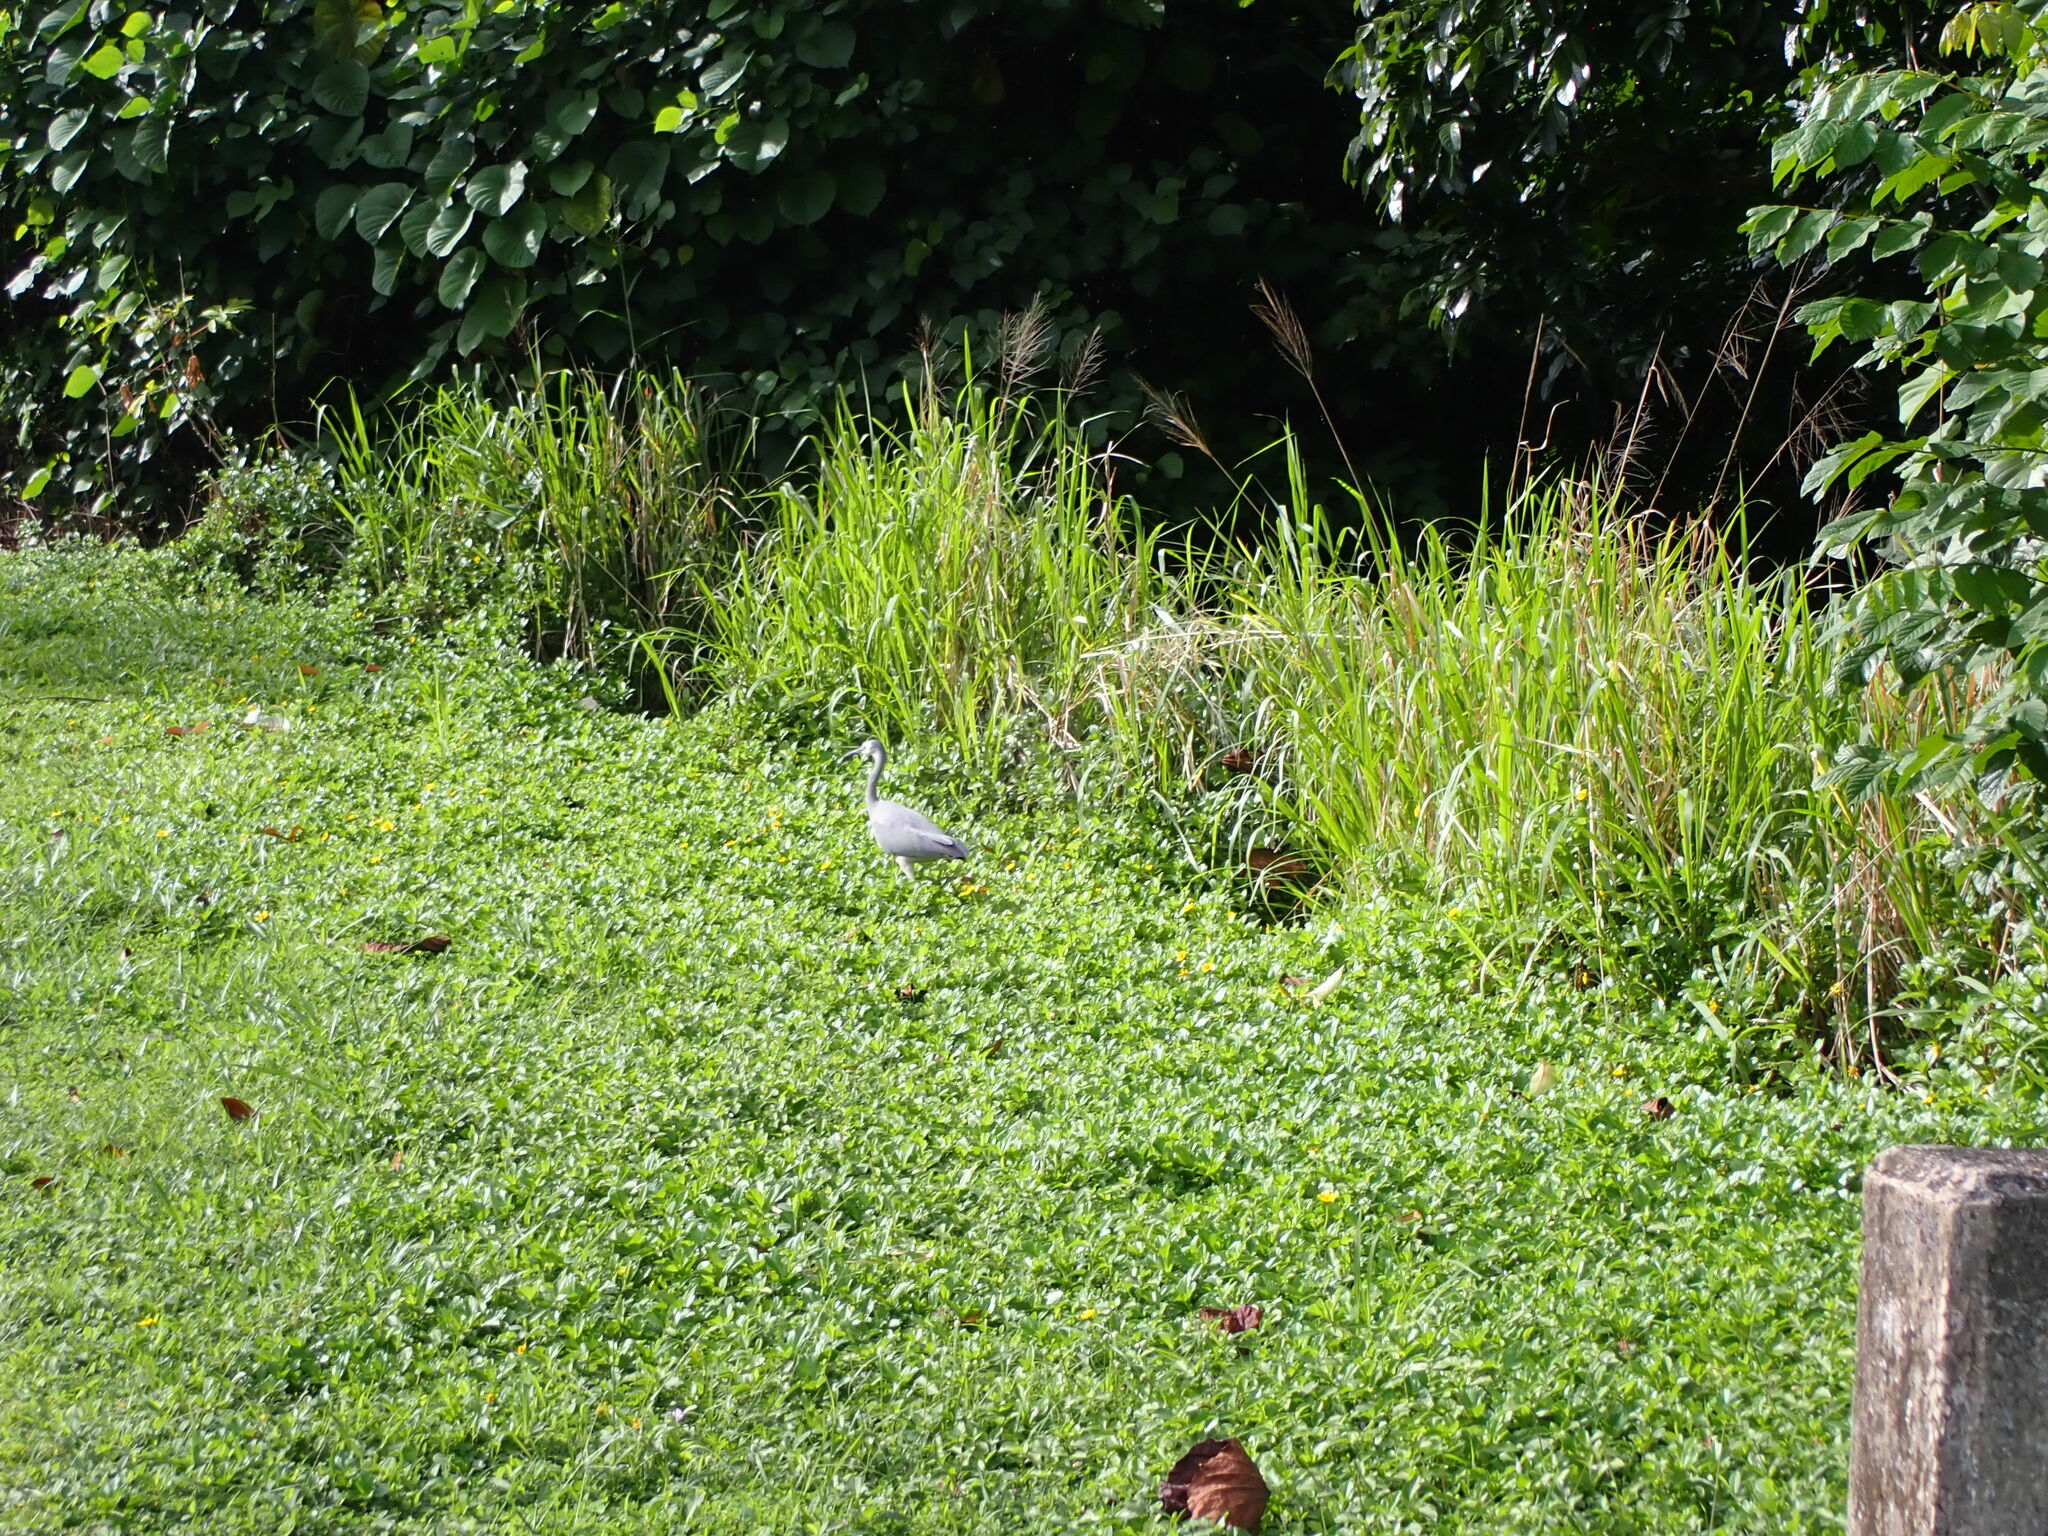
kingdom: Animalia
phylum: Chordata
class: Aves
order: Pelecaniformes
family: Ardeidae
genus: Egretta
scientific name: Egretta novaehollandiae
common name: White-faced heron
